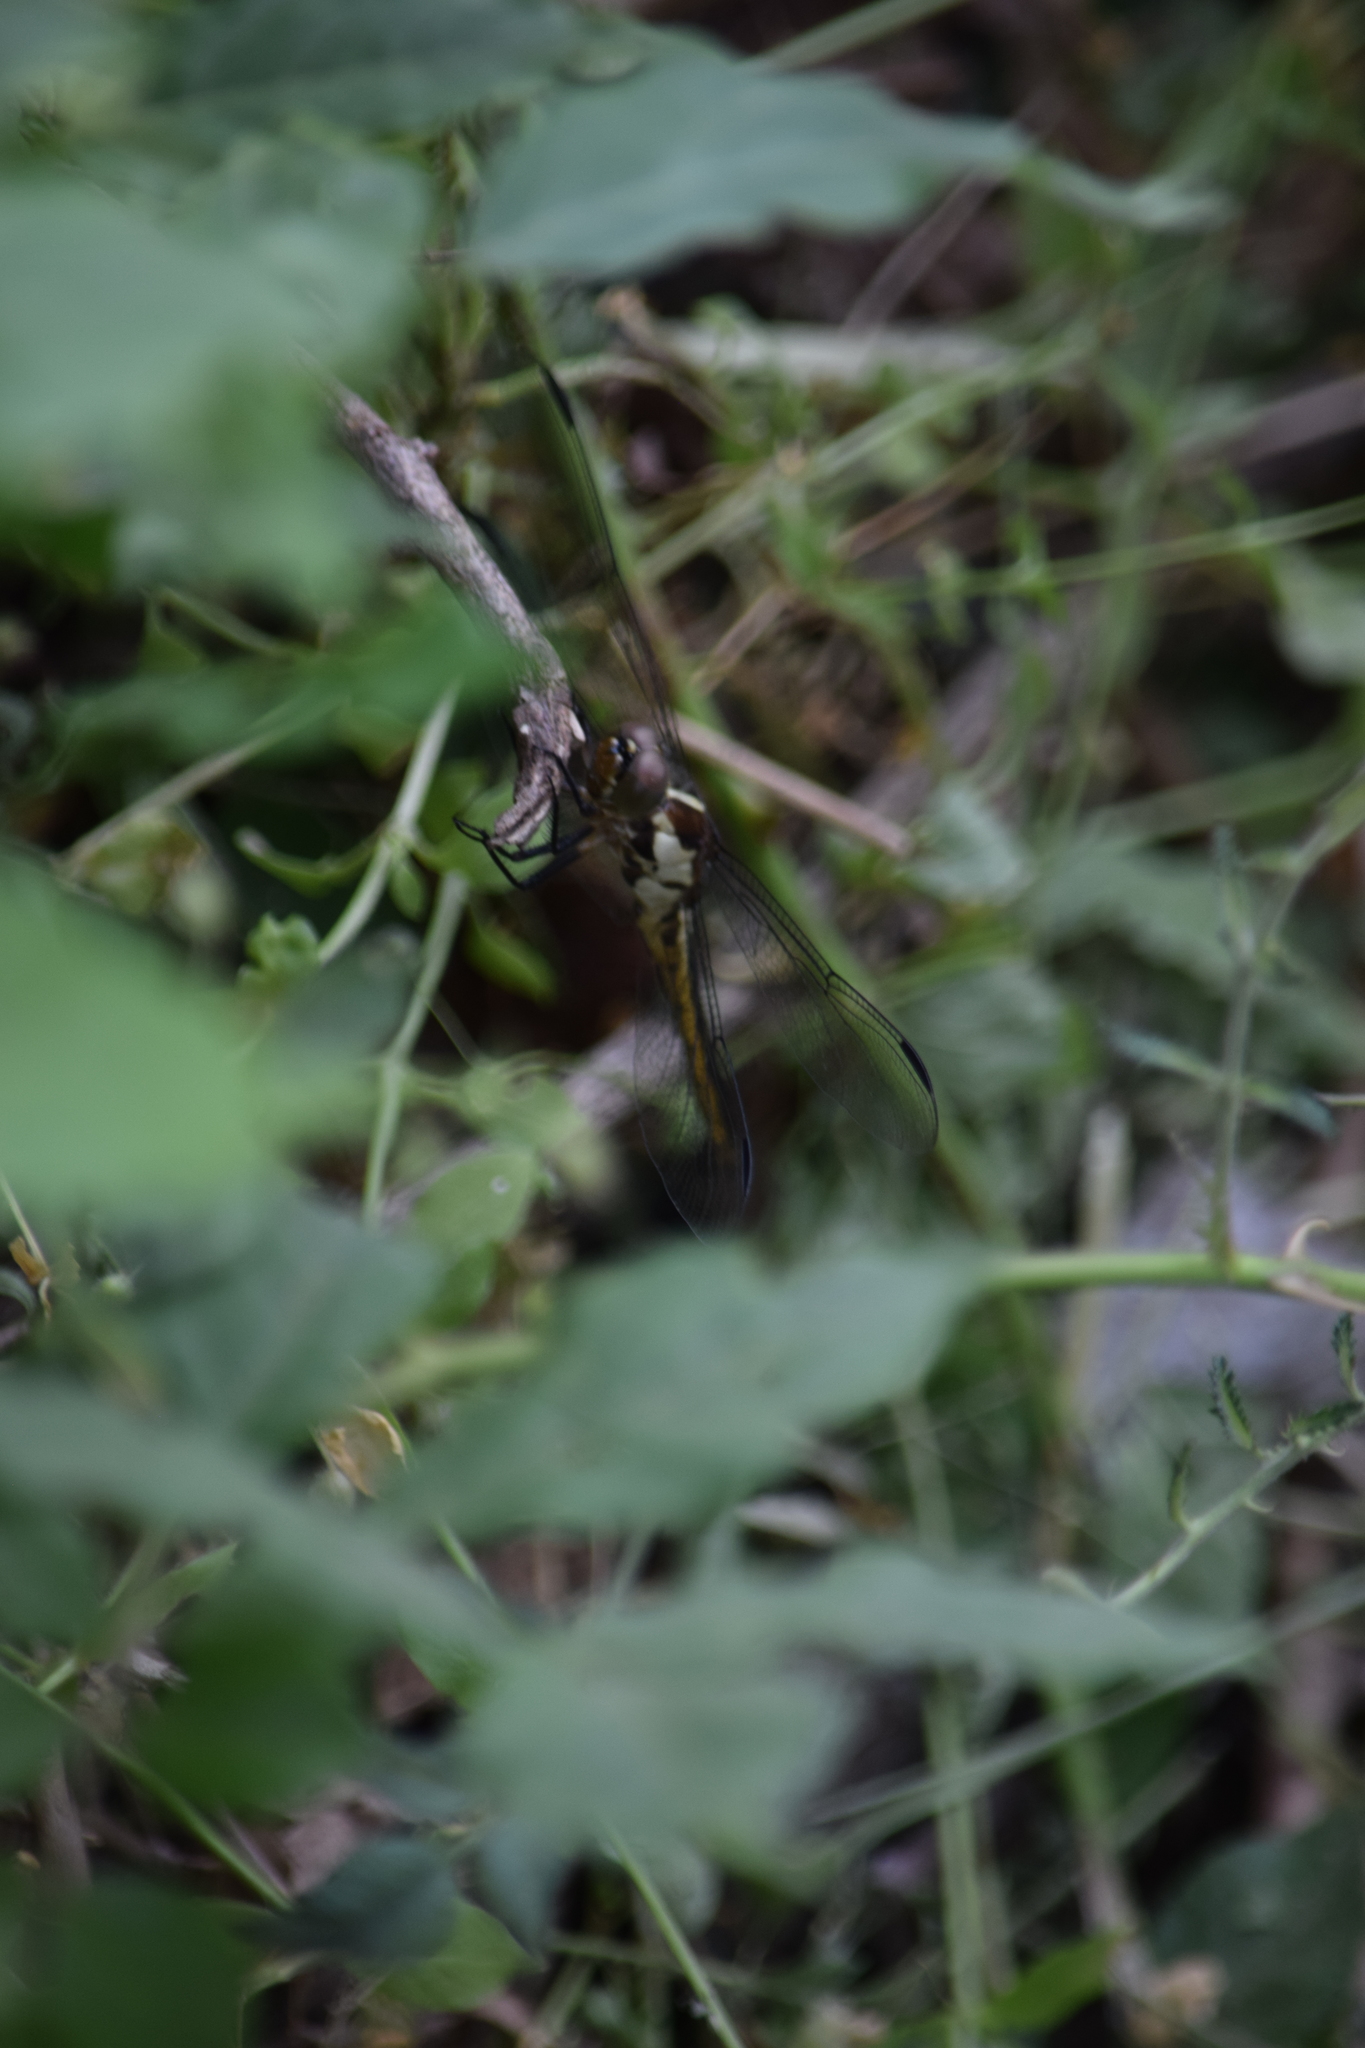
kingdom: Animalia
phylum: Arthropoda
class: Insecta
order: Odonata
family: Libellulidae
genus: Libellula
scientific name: Libellula incesta
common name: Slaty skimmer
